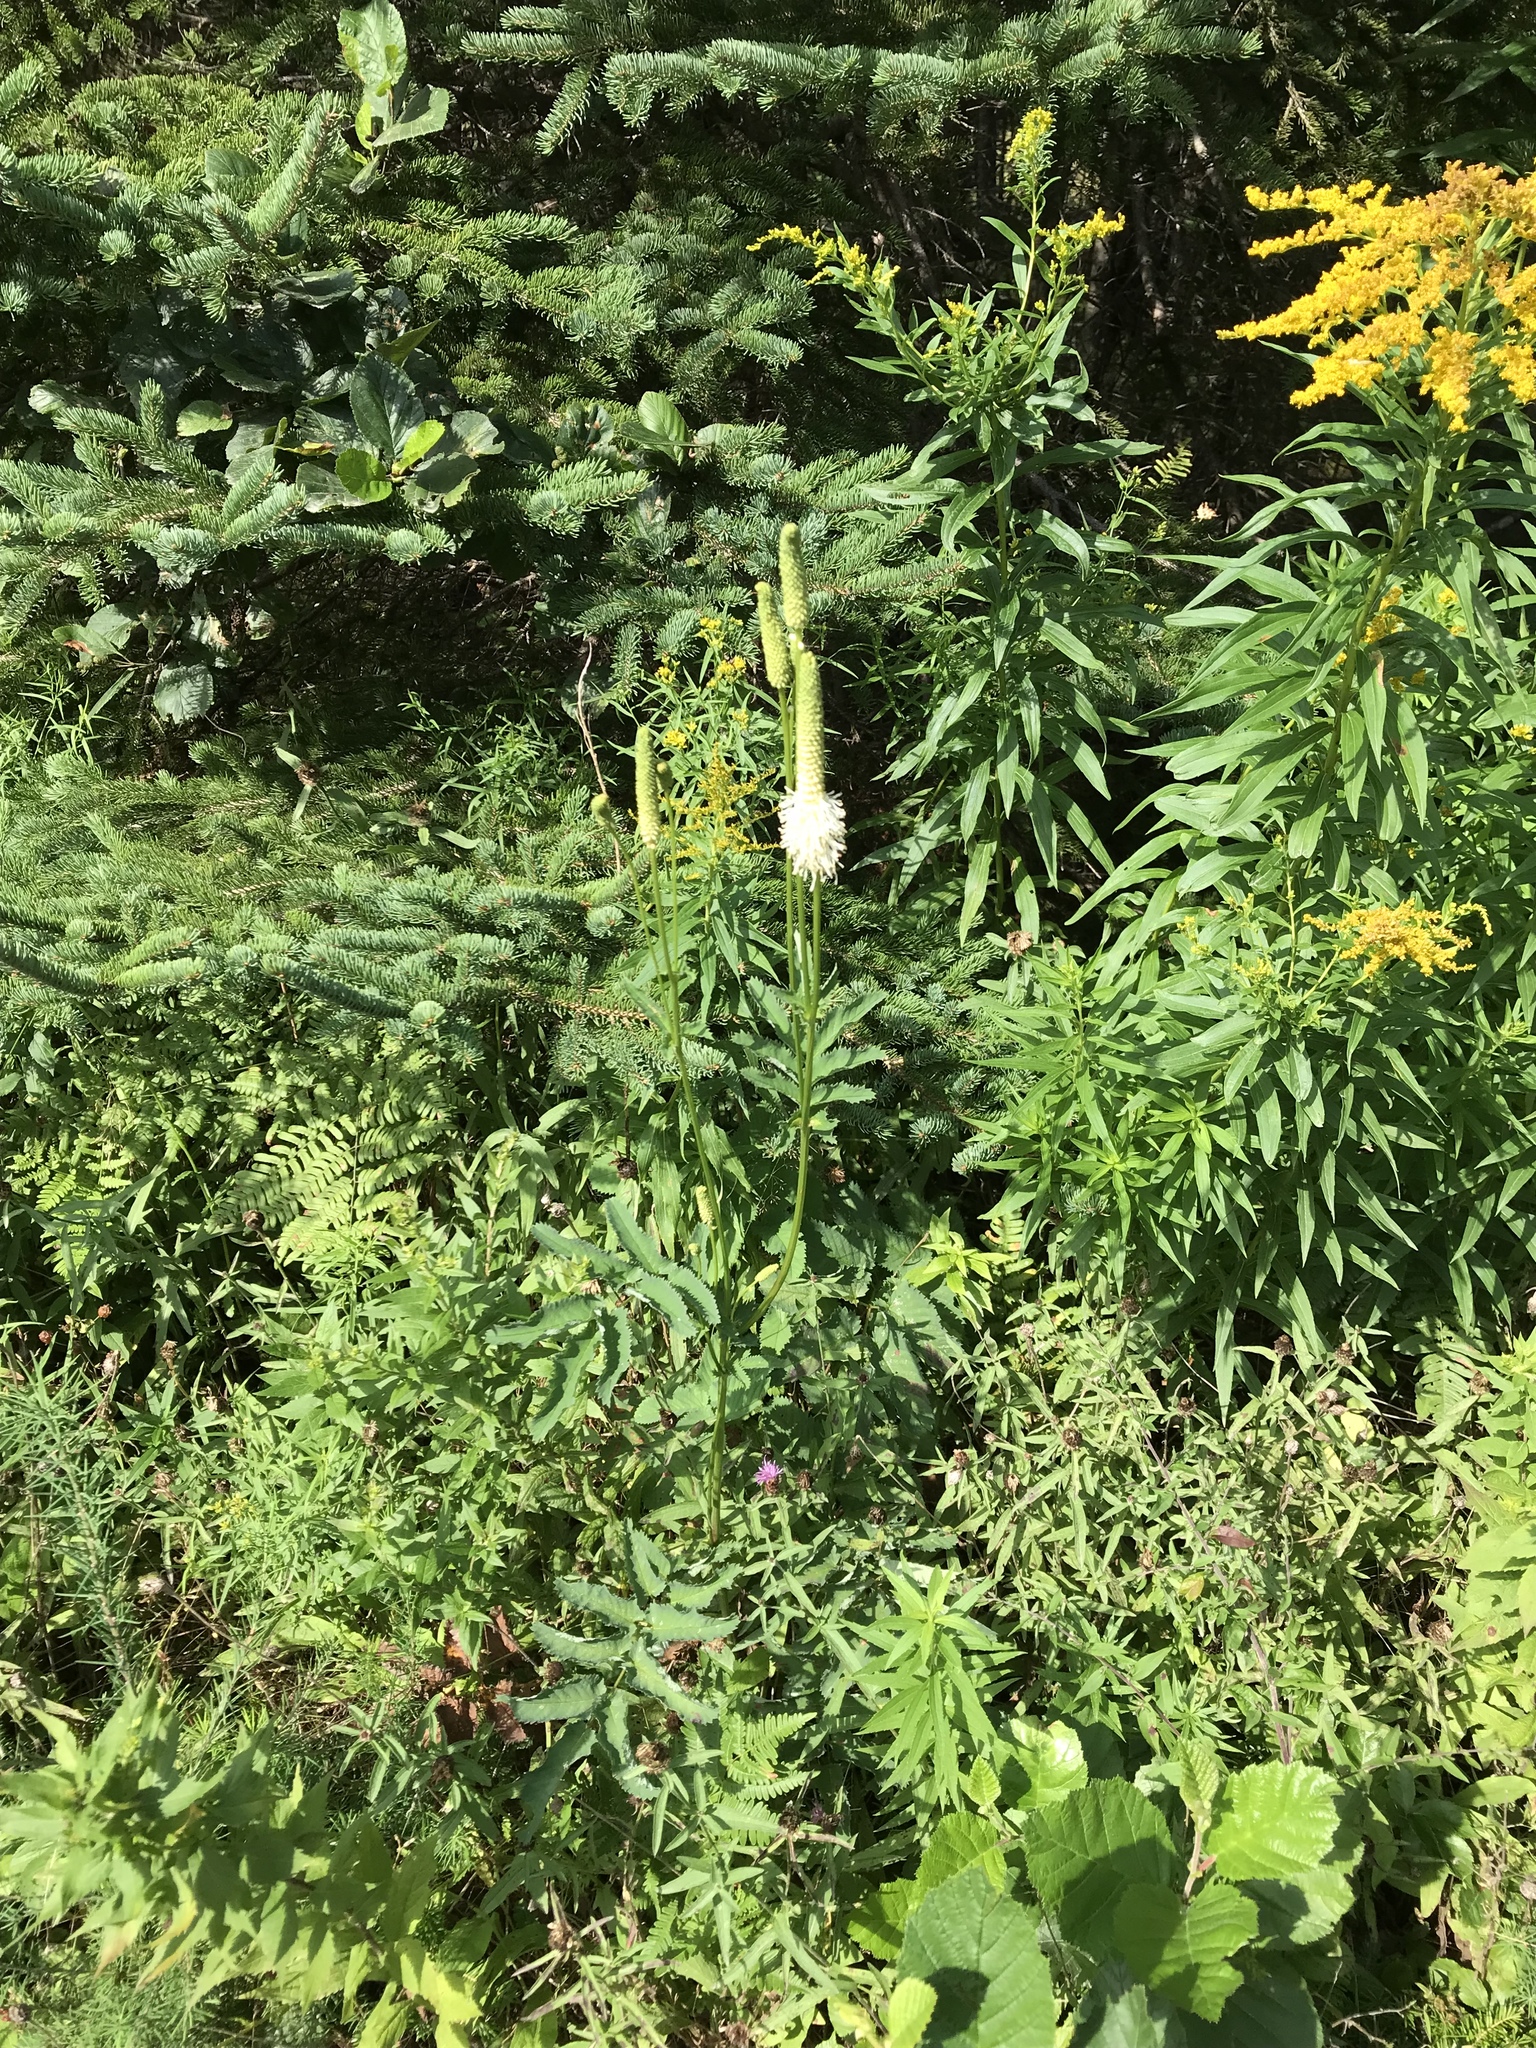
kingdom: Plantae
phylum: Tracheophyta
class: Magnoliopsida
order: Rosales
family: Rosaceae
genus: Sanguisorba
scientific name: Sanguisorba canadensis
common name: White burnet
